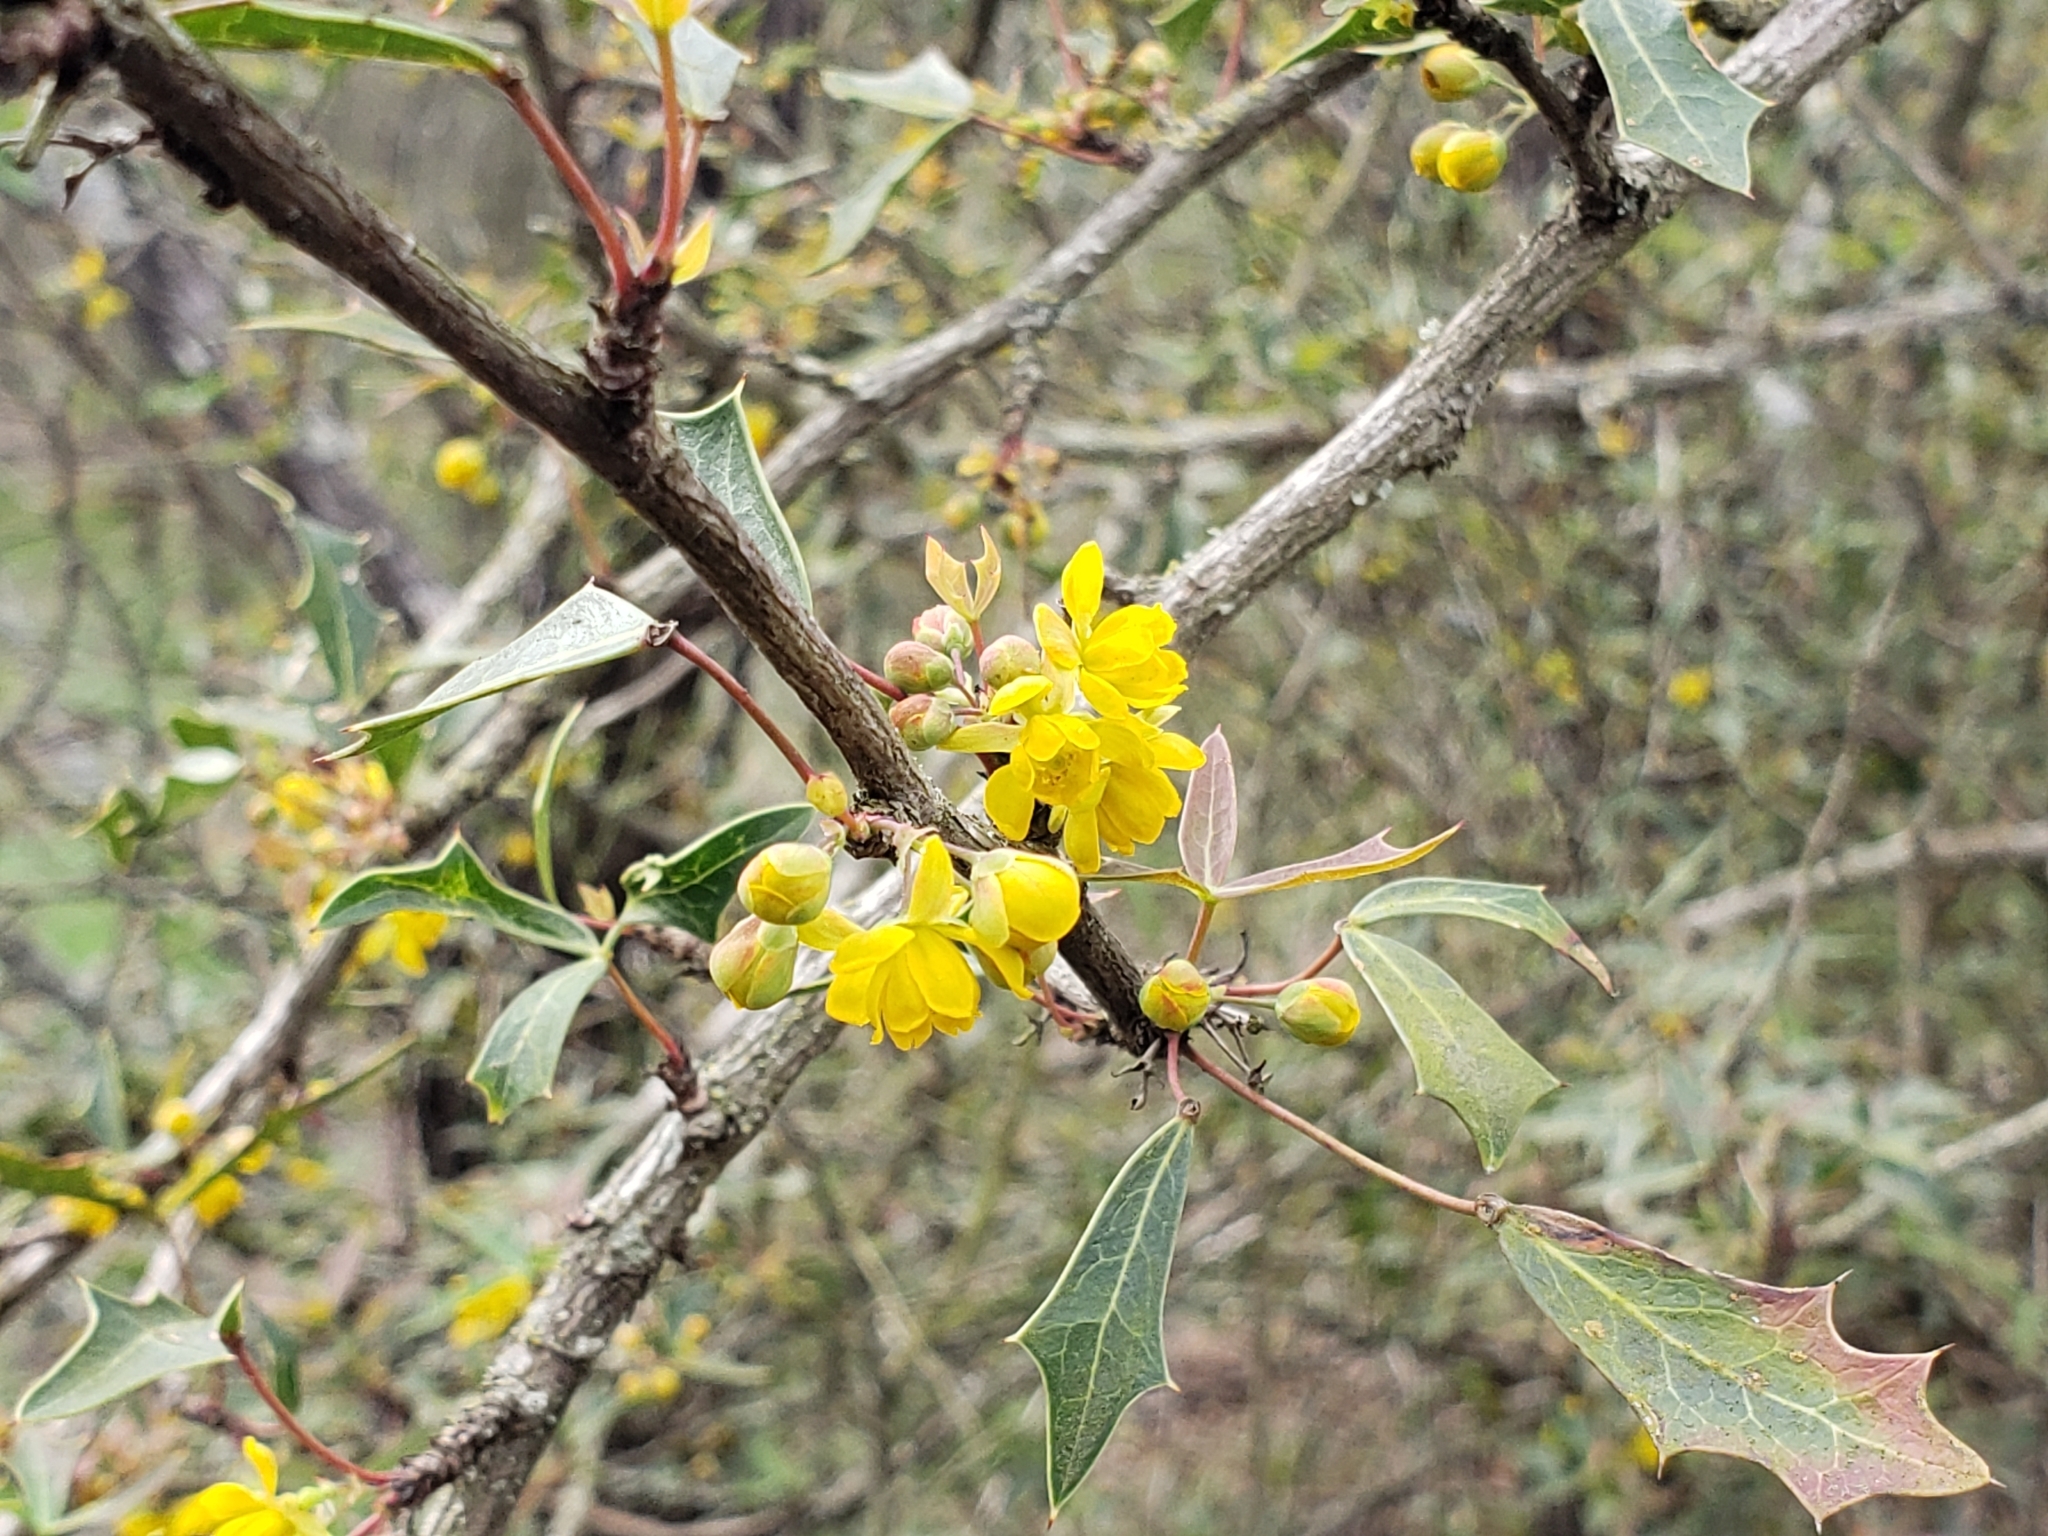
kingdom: Plantae
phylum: Tracheophyta
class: Magnoliopsida
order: Ranunculales
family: Berberidaceae
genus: Alloberberis
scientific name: Alloberberis trifoliolata
